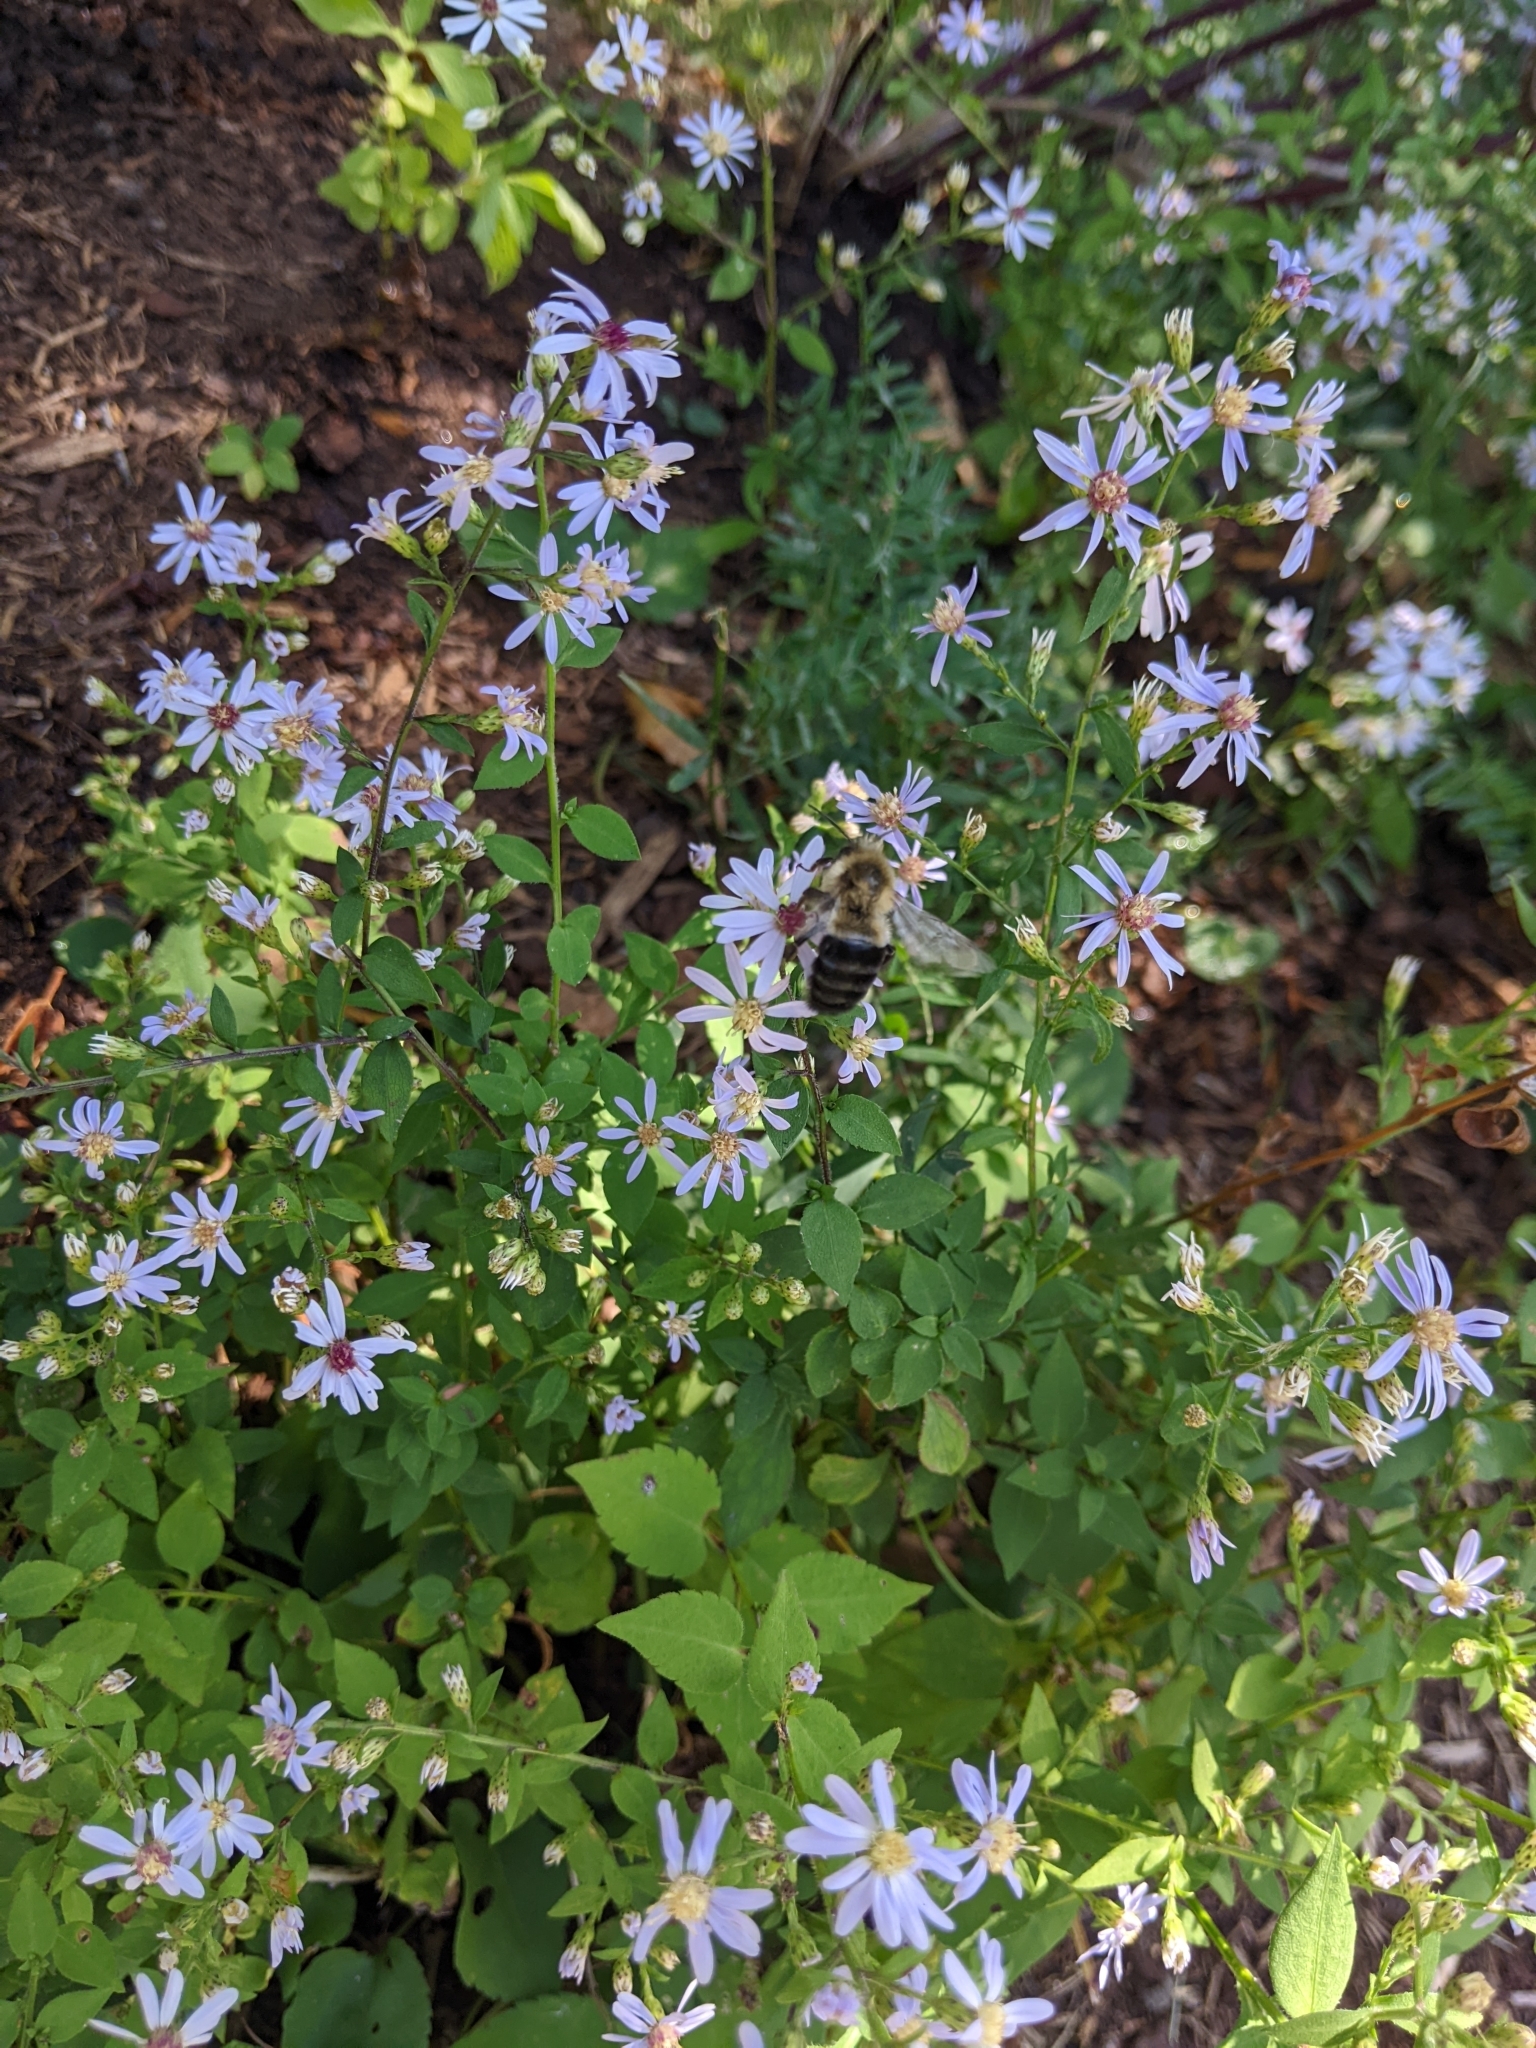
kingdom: Animalia
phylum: Arthropoda
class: Insecta
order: Hymenoptera
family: Apidae
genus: Bombus
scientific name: Bombus impatiens
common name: Common eastern bumble bee
